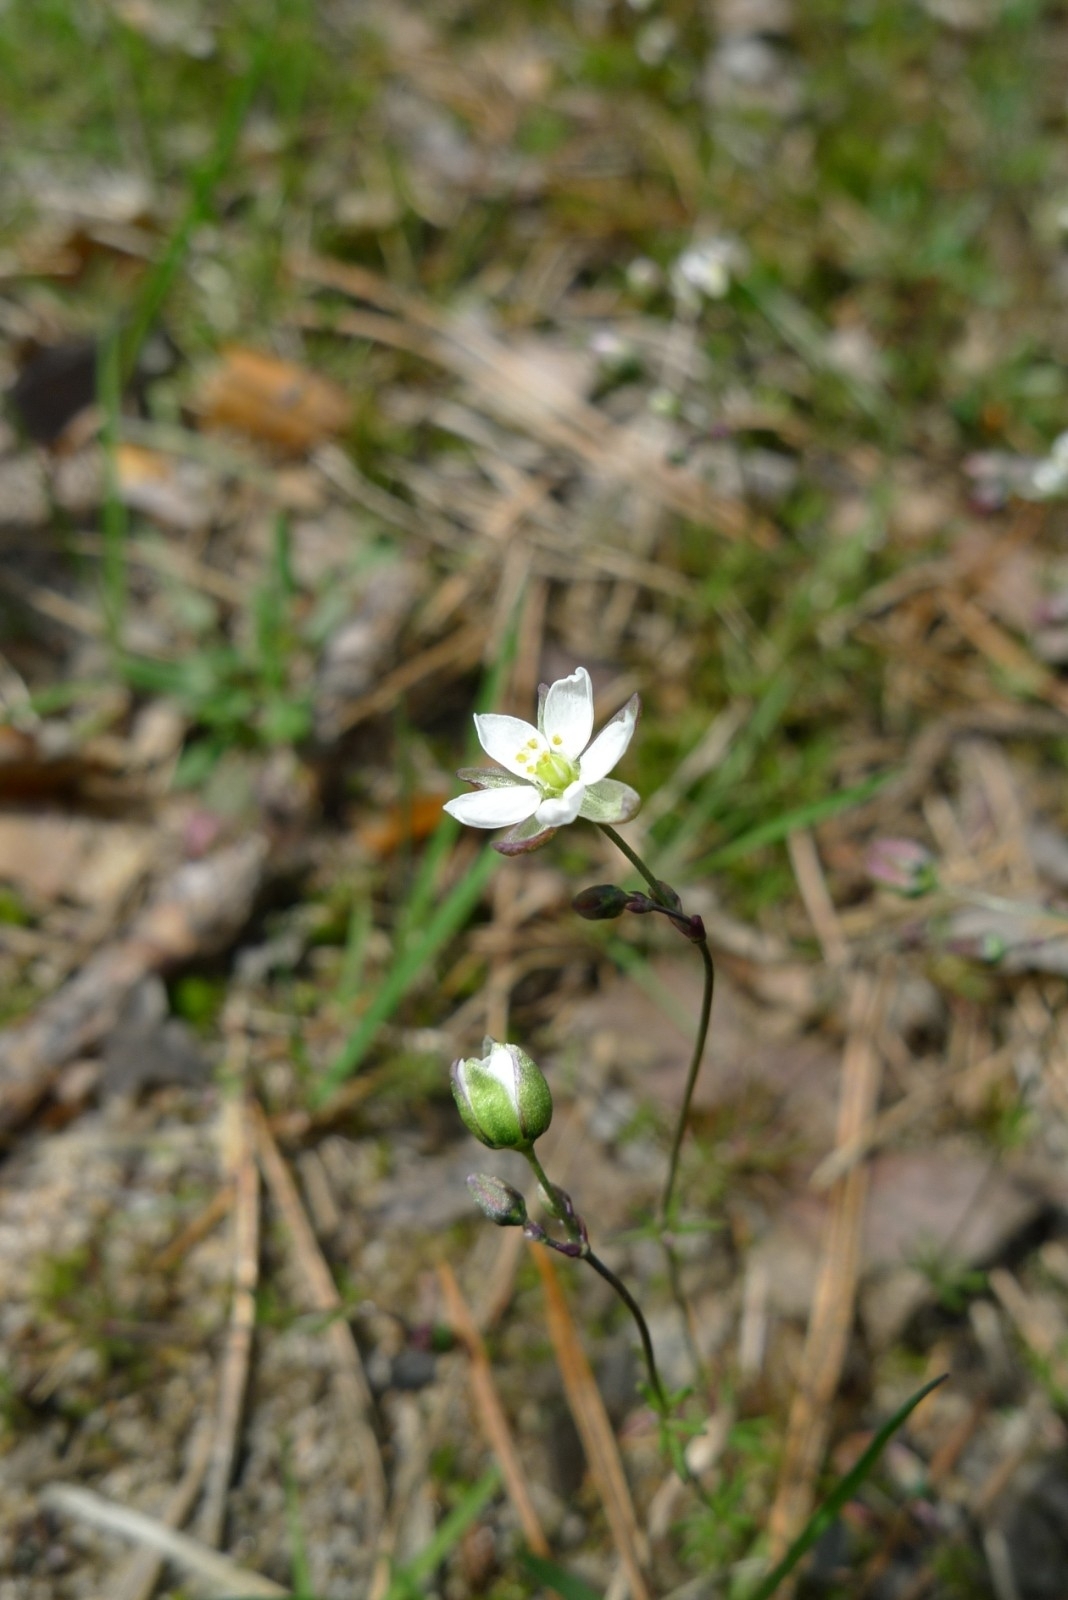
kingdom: Plantae
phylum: Tracheophyta
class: Magnoliopsida
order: Caryophyllales
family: Caryophyllaceae
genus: Spergula
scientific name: Spergula morisonii
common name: Pearlwort spurrey
